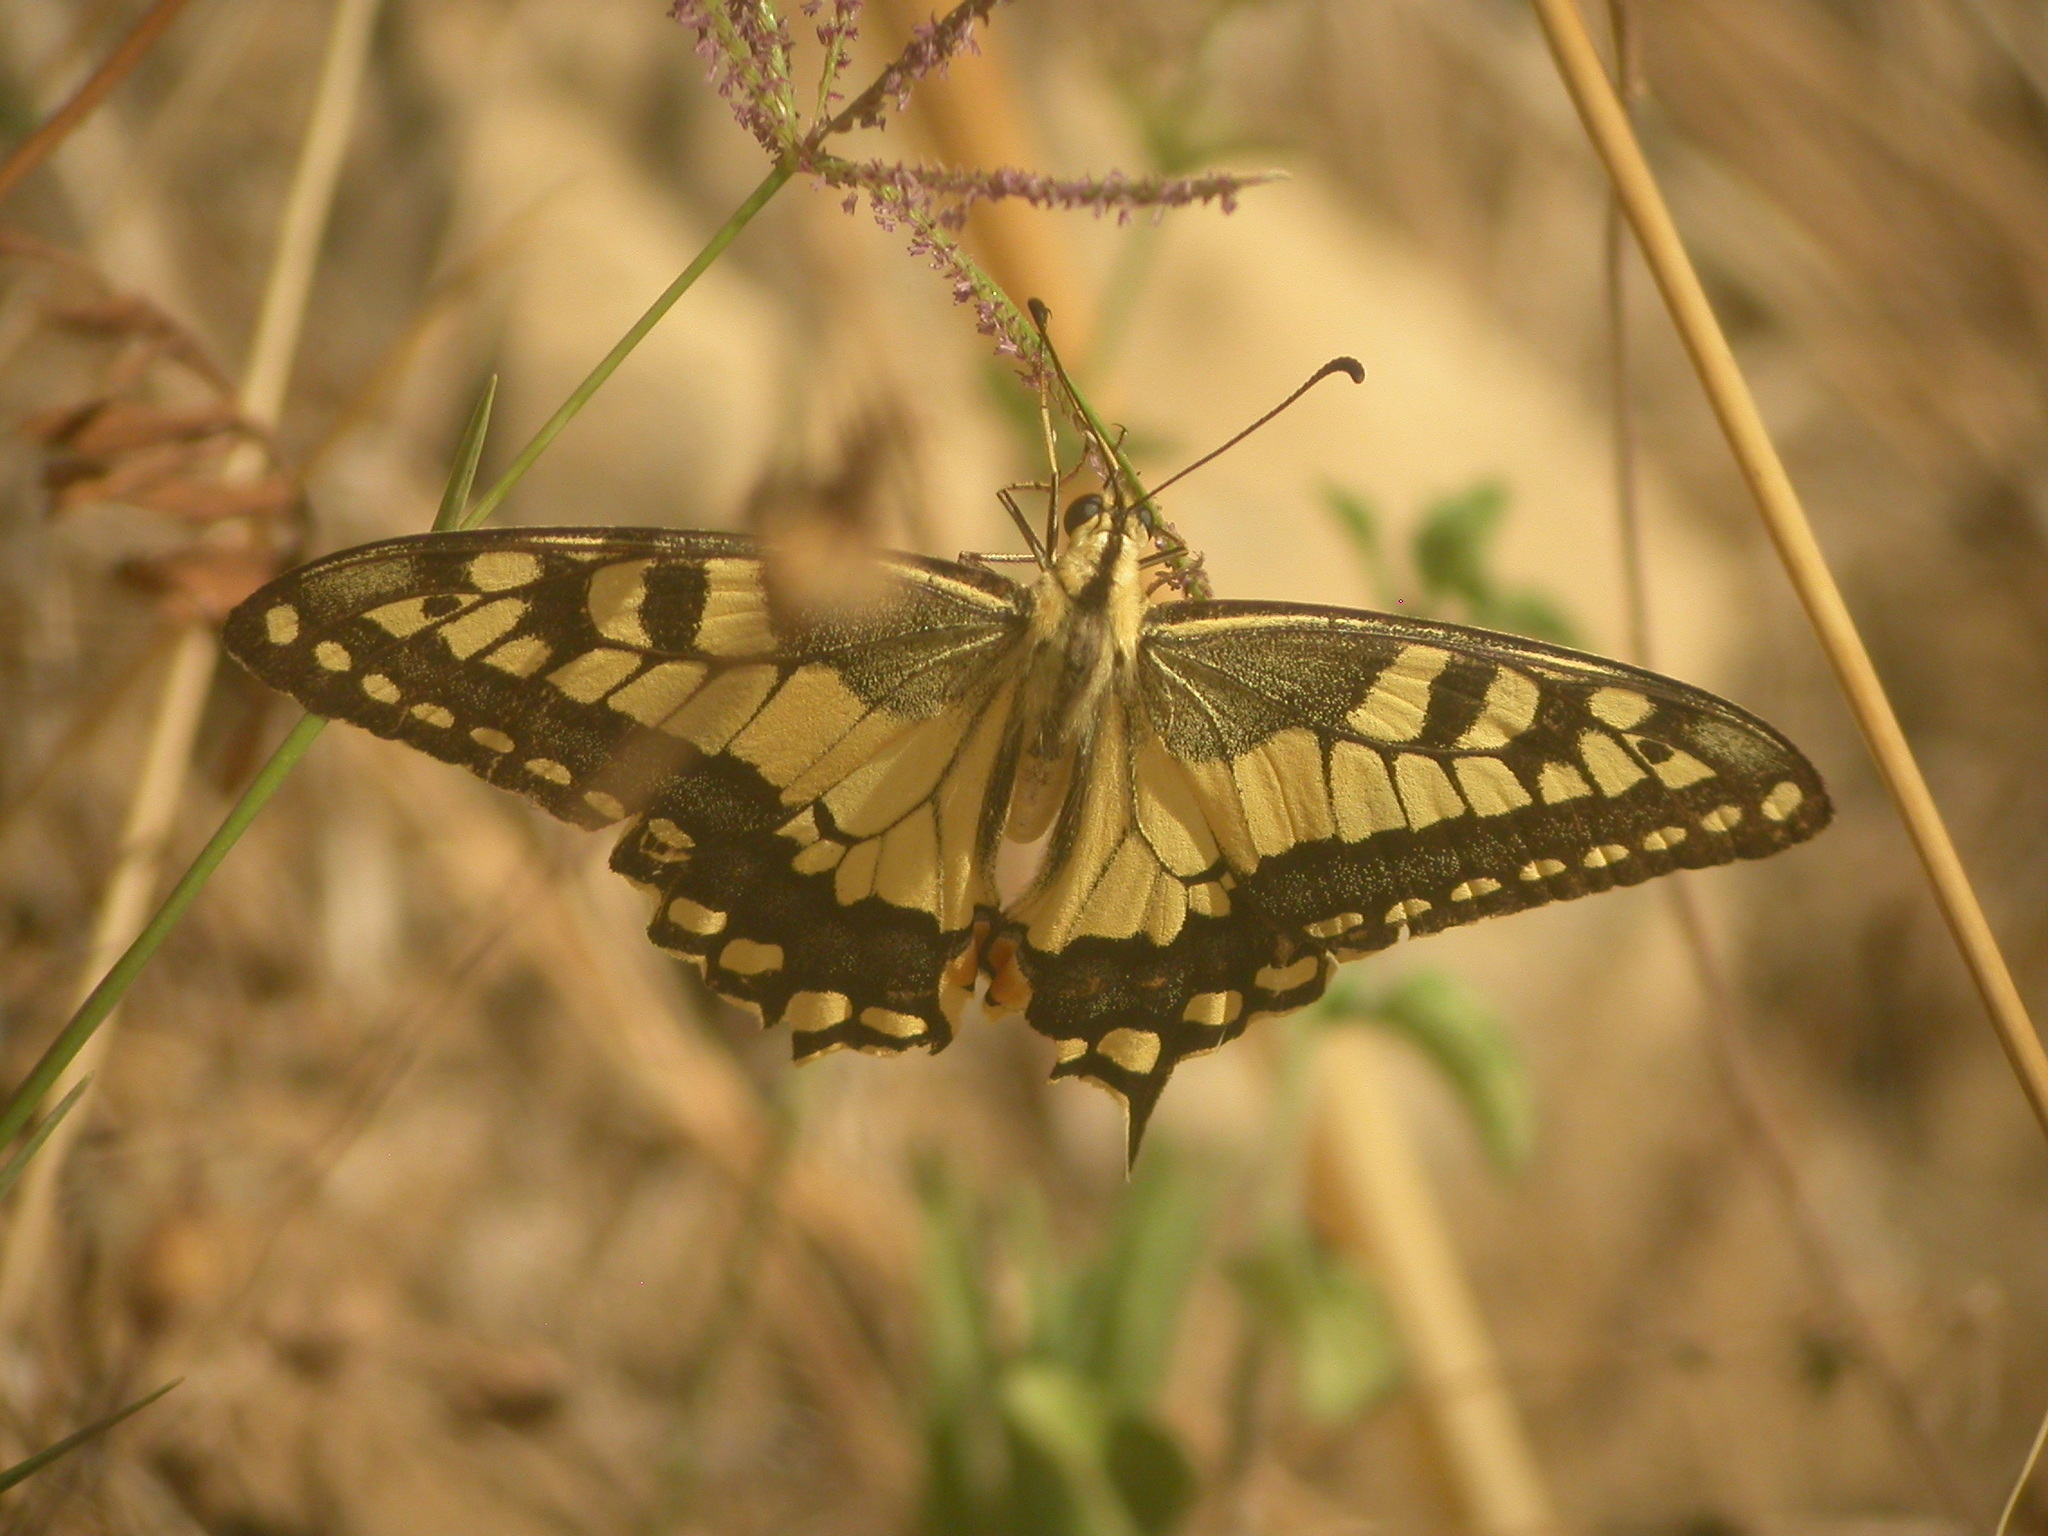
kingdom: Animalia
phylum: Arthropoda
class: Insecta
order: Lepidoptera
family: Papilionidae
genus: Papilio
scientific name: Papilio machaon
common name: Swallowtail
